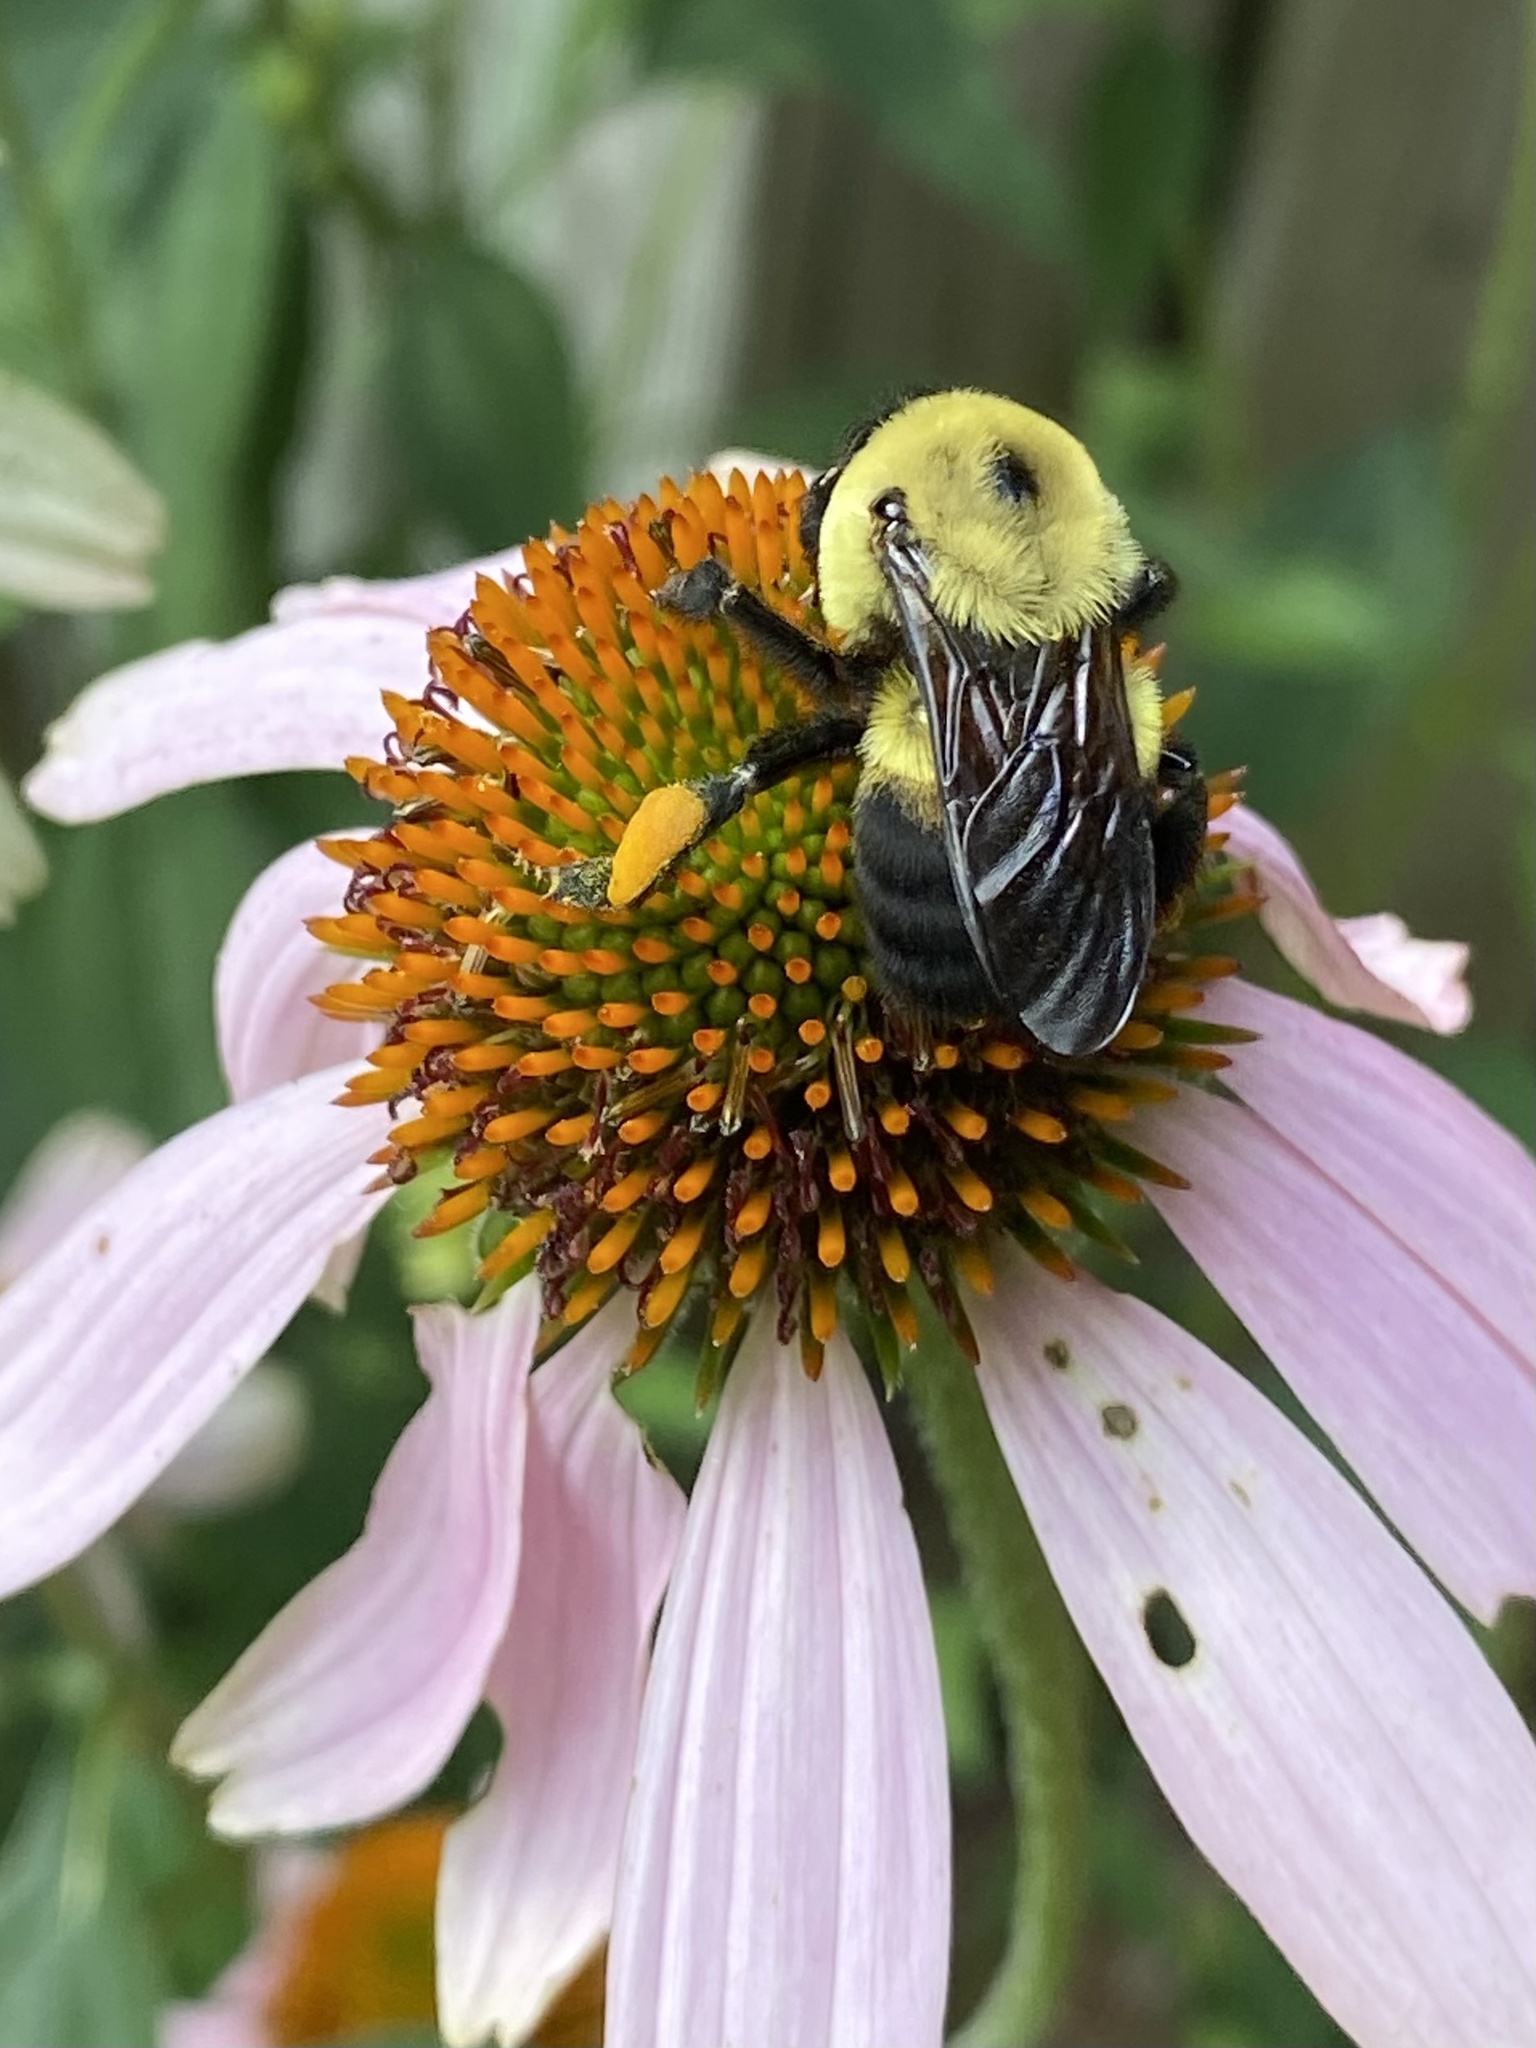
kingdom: Animalia
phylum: Arthropoda
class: Insecta
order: Hymenoptera
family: Apidae
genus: Bombus
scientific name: Bombus griseocollis
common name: Brown-belted bumble bee
